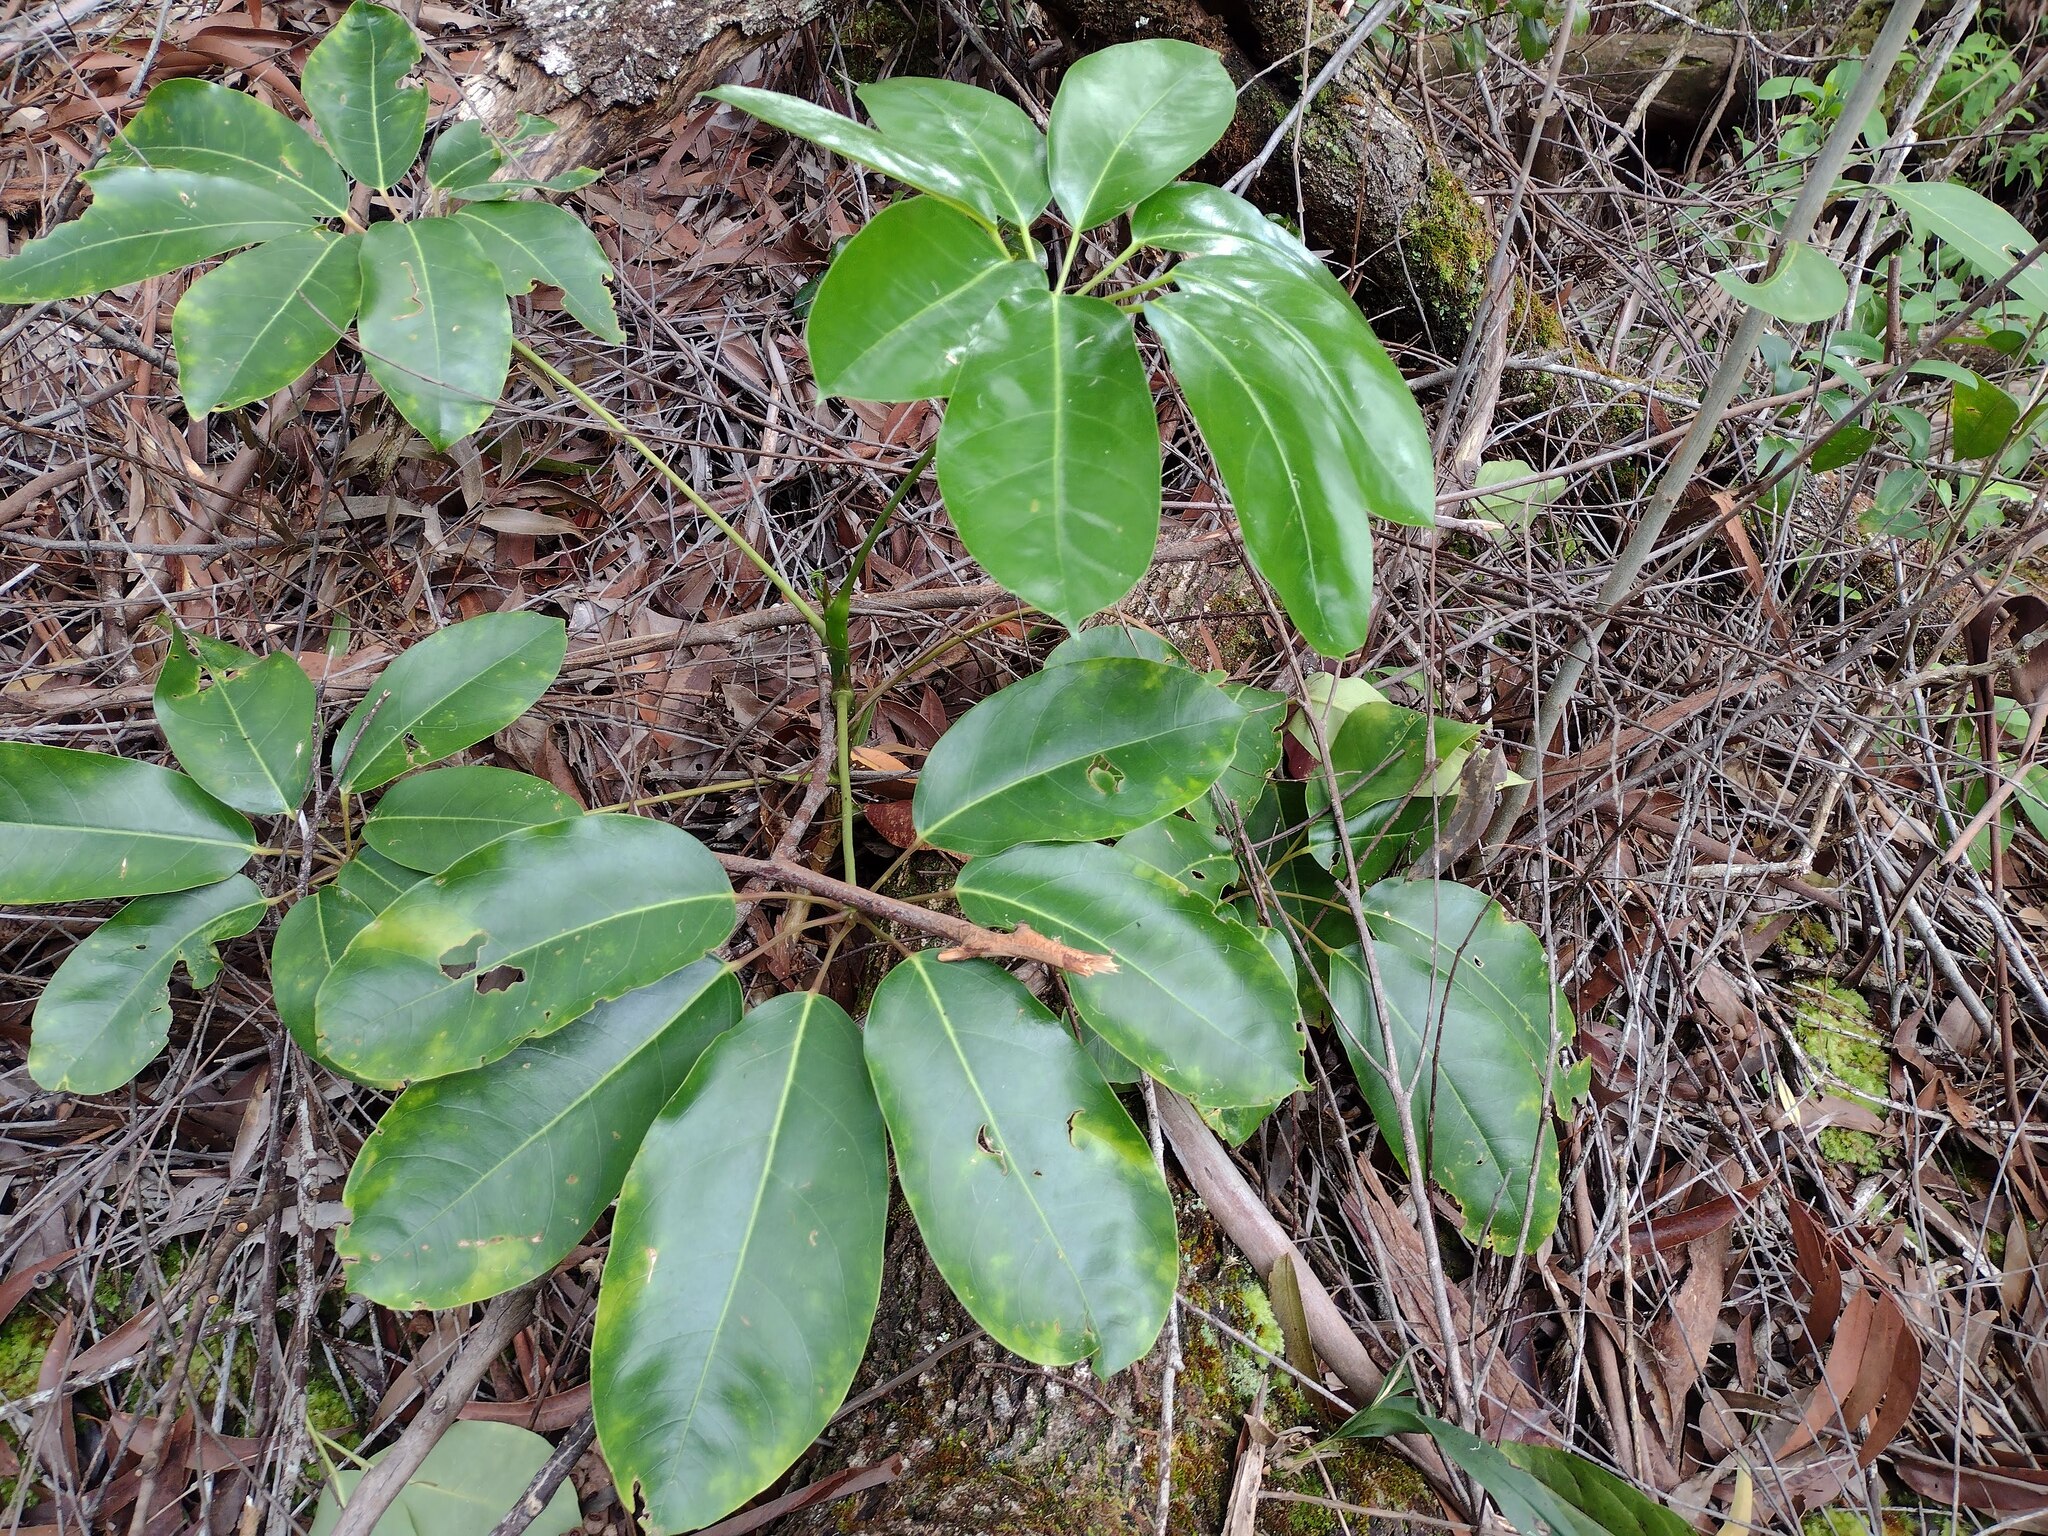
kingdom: Plantae
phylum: Tracheophyta
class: Magnoliopsida
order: Apiales
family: Araliaceae
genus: Heptapleurum
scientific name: Heptapleurum actinophyllum
